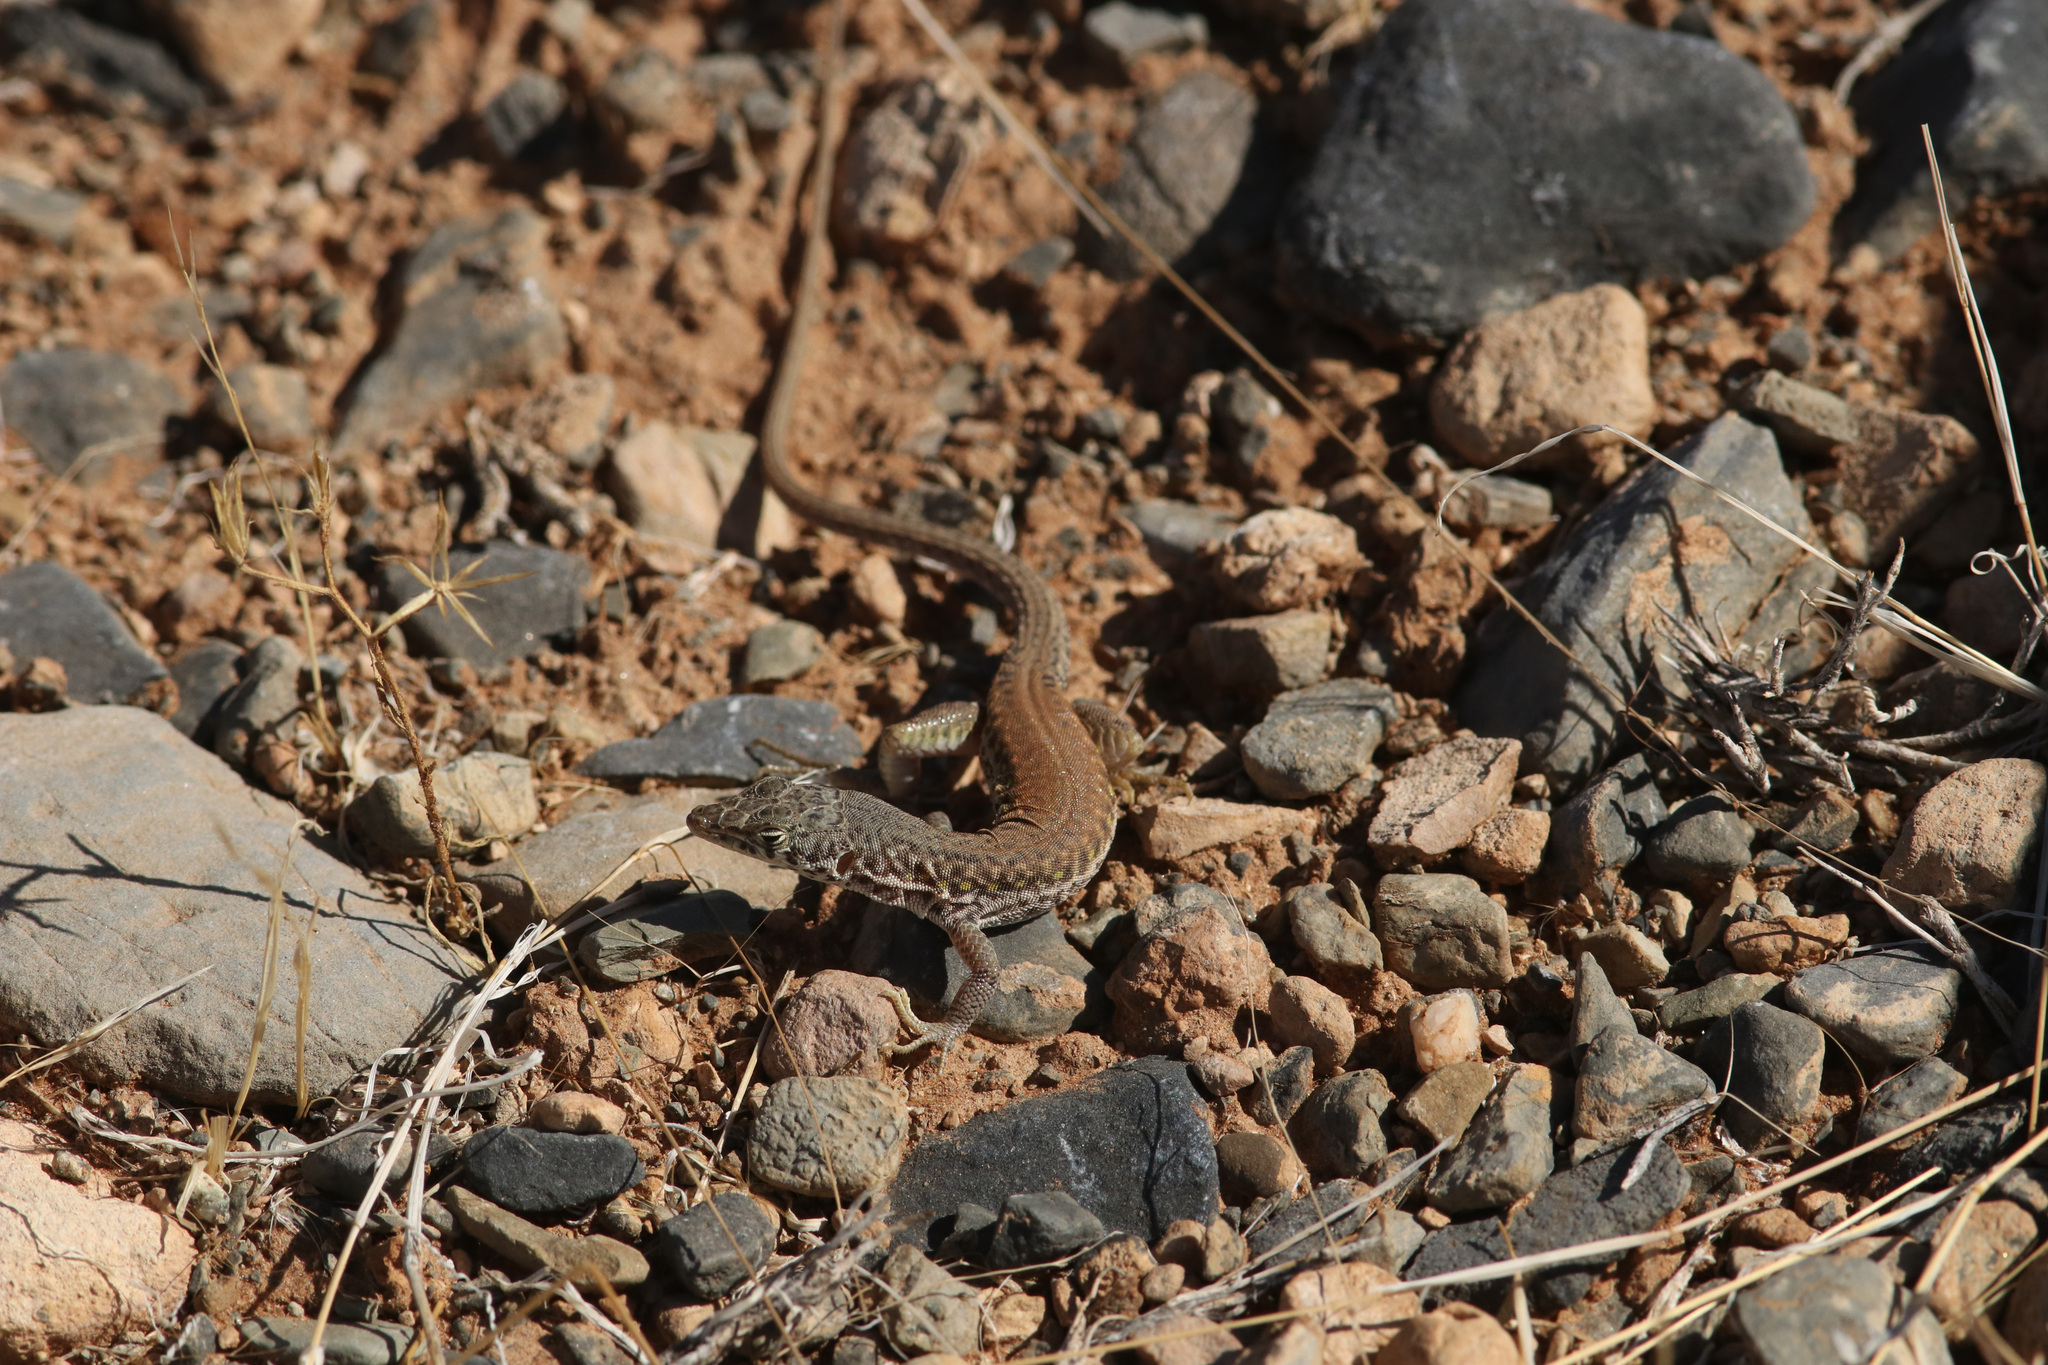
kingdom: Animalia
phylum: Chordata
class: Squamata
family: Lacertidae
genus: Pedioplanis
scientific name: Pedioplanis inornata
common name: Plain sand lizard
